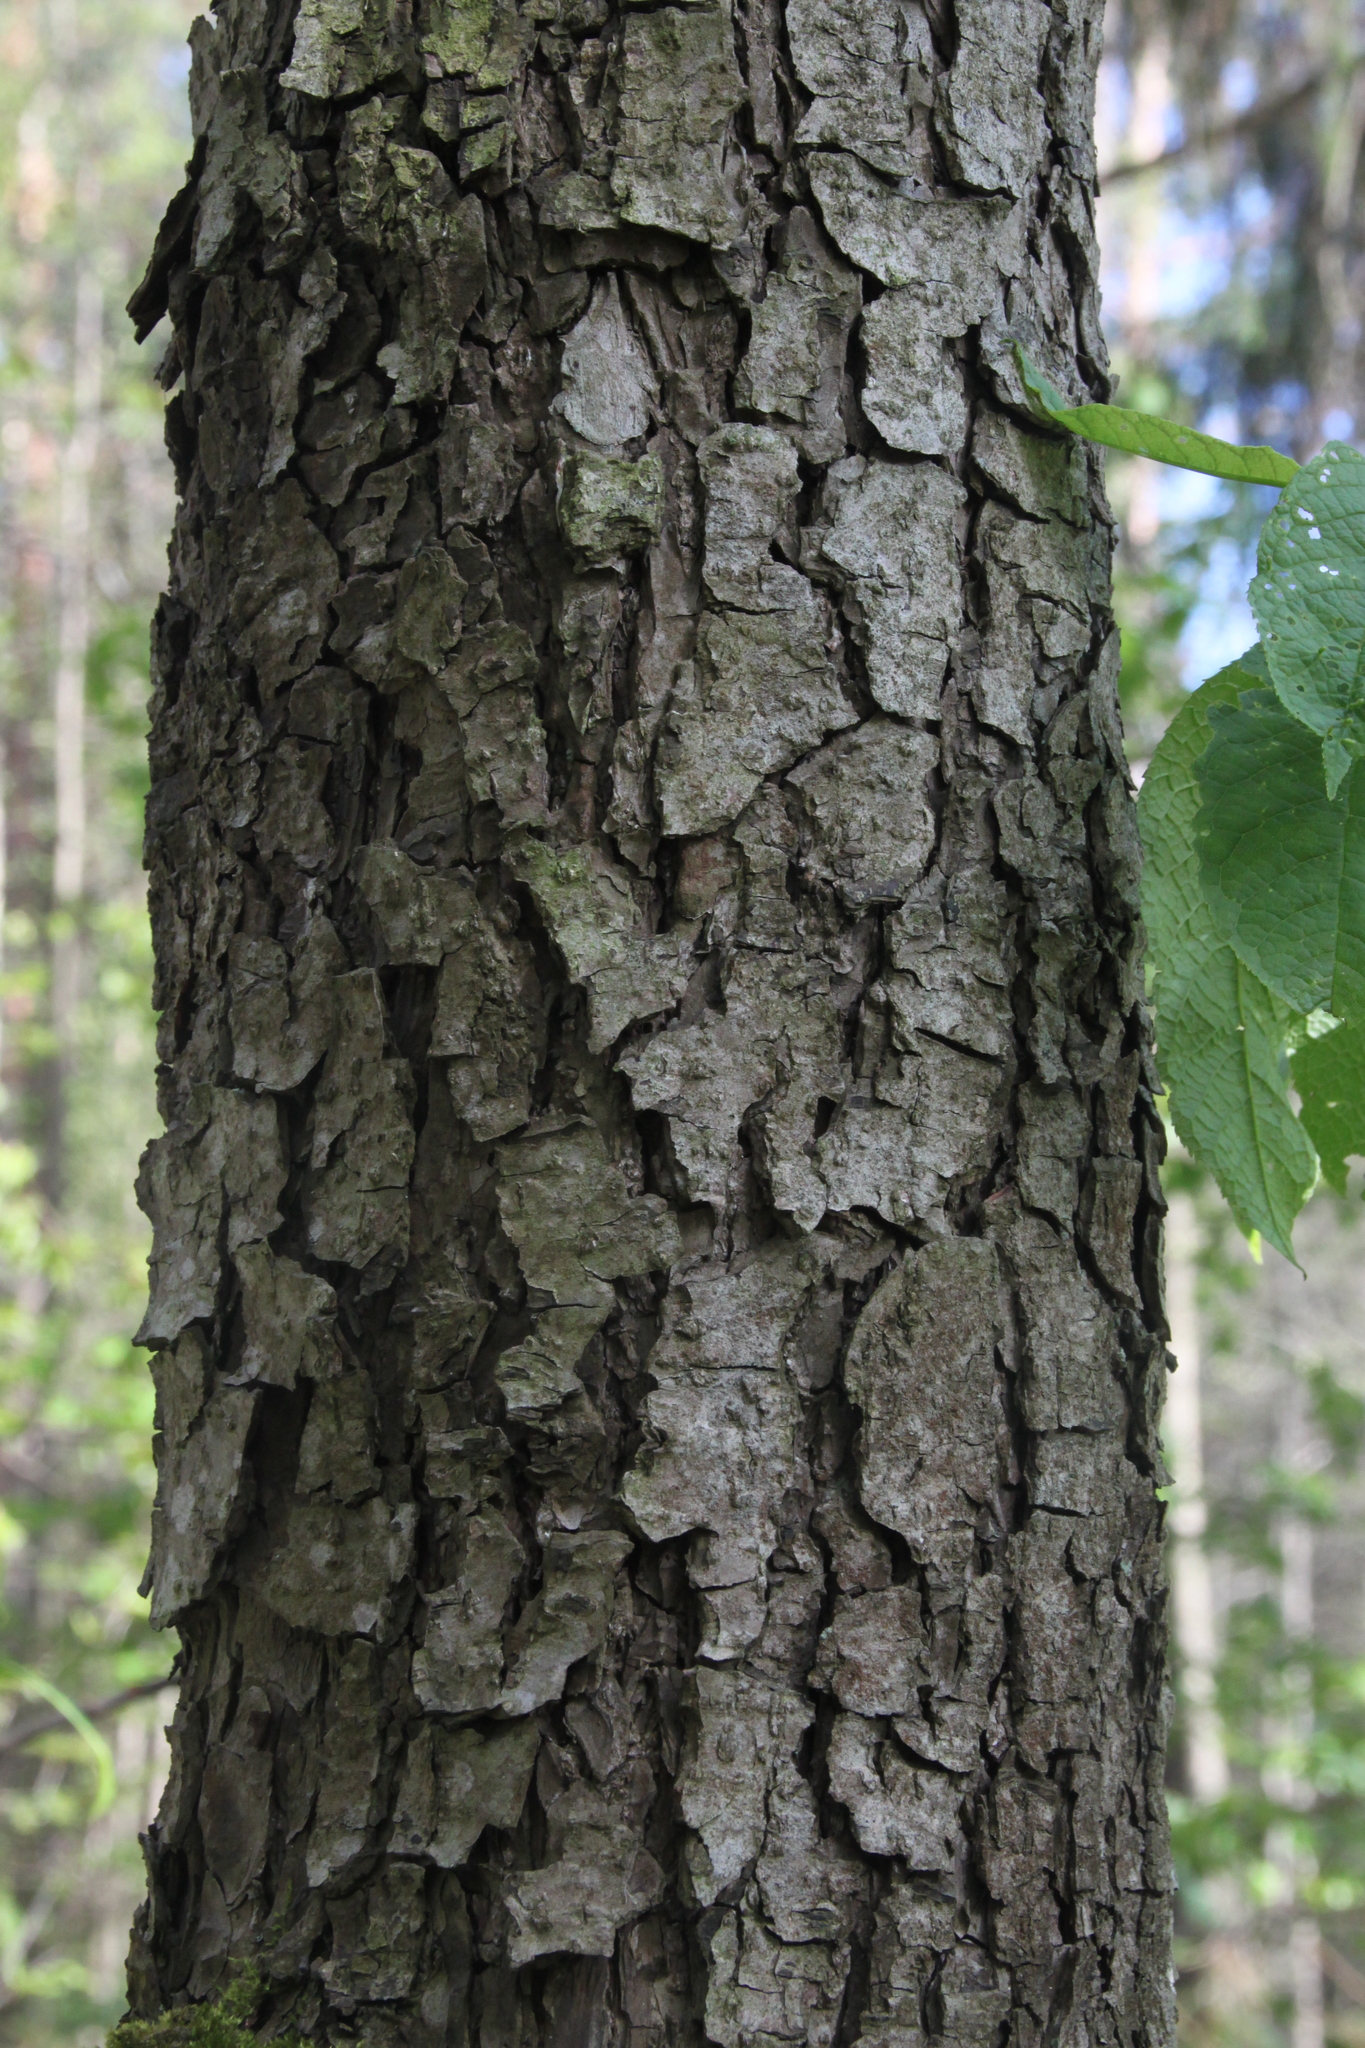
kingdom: Plantae
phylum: Tracheophyta
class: Magnoliopsida
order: Fagales
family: Betulaceae
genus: Alnus
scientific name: Alnus glutinosa
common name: Black alder
